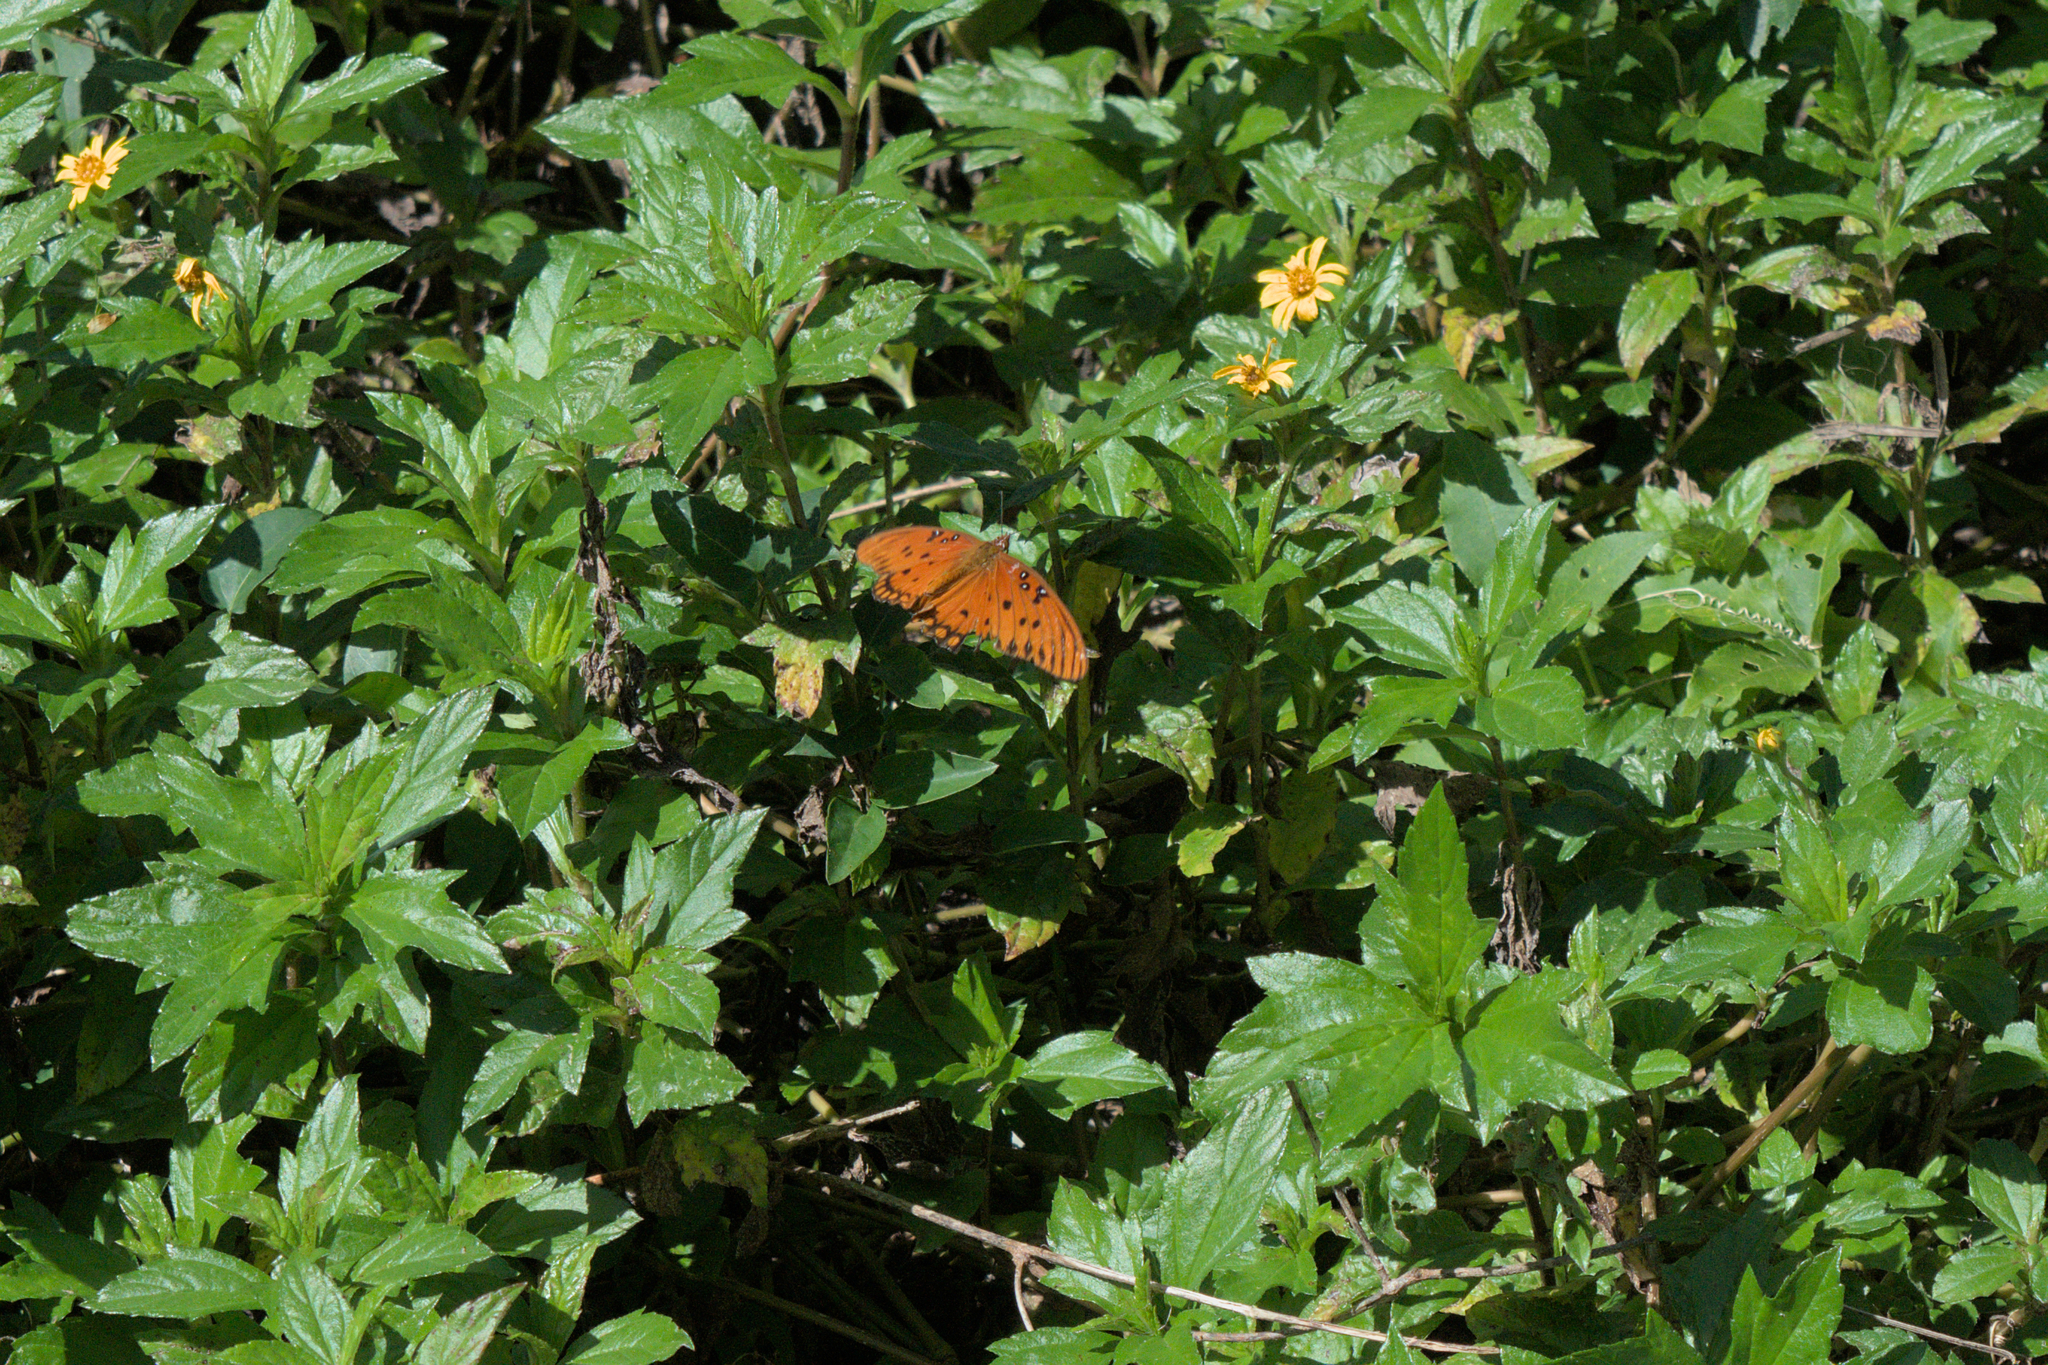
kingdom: Animalia
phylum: Arthropoda
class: Insecta
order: Lepidoptera
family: Nymphalidae
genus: Dione
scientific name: Dione vanillae
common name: Gulf fritillary
